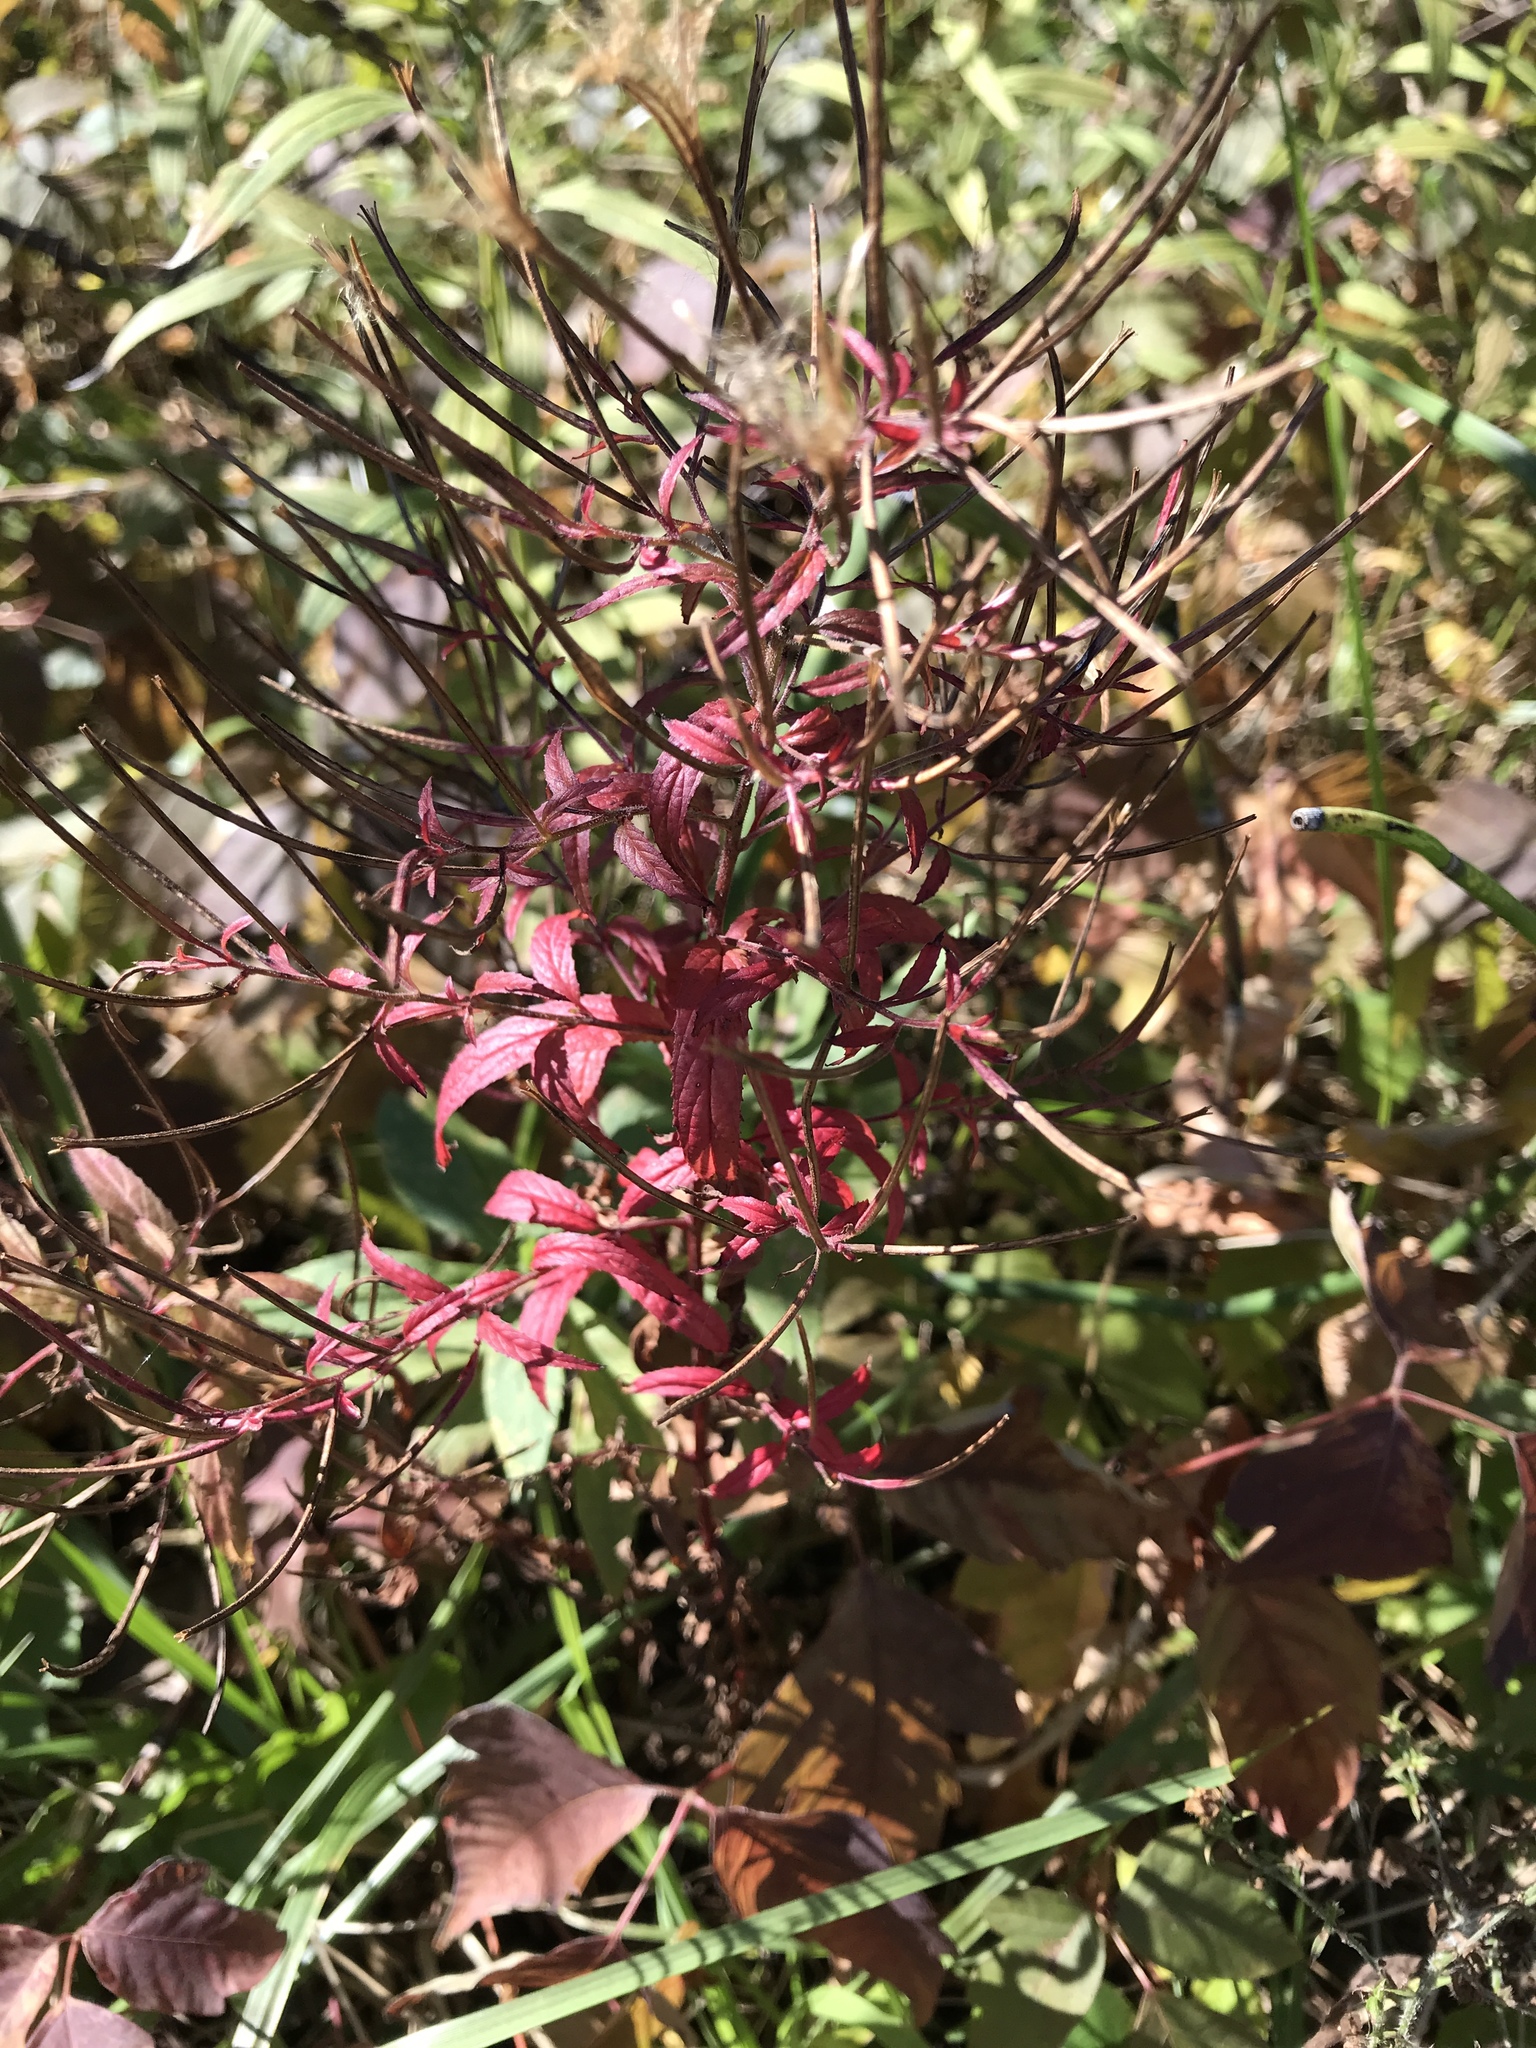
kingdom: Plantae
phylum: Tracheophyta
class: Magnoliopsida
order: Myrtales
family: Onagraceae
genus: Epilobium
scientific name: Epilobium coloratum
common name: Bronze willowherb
